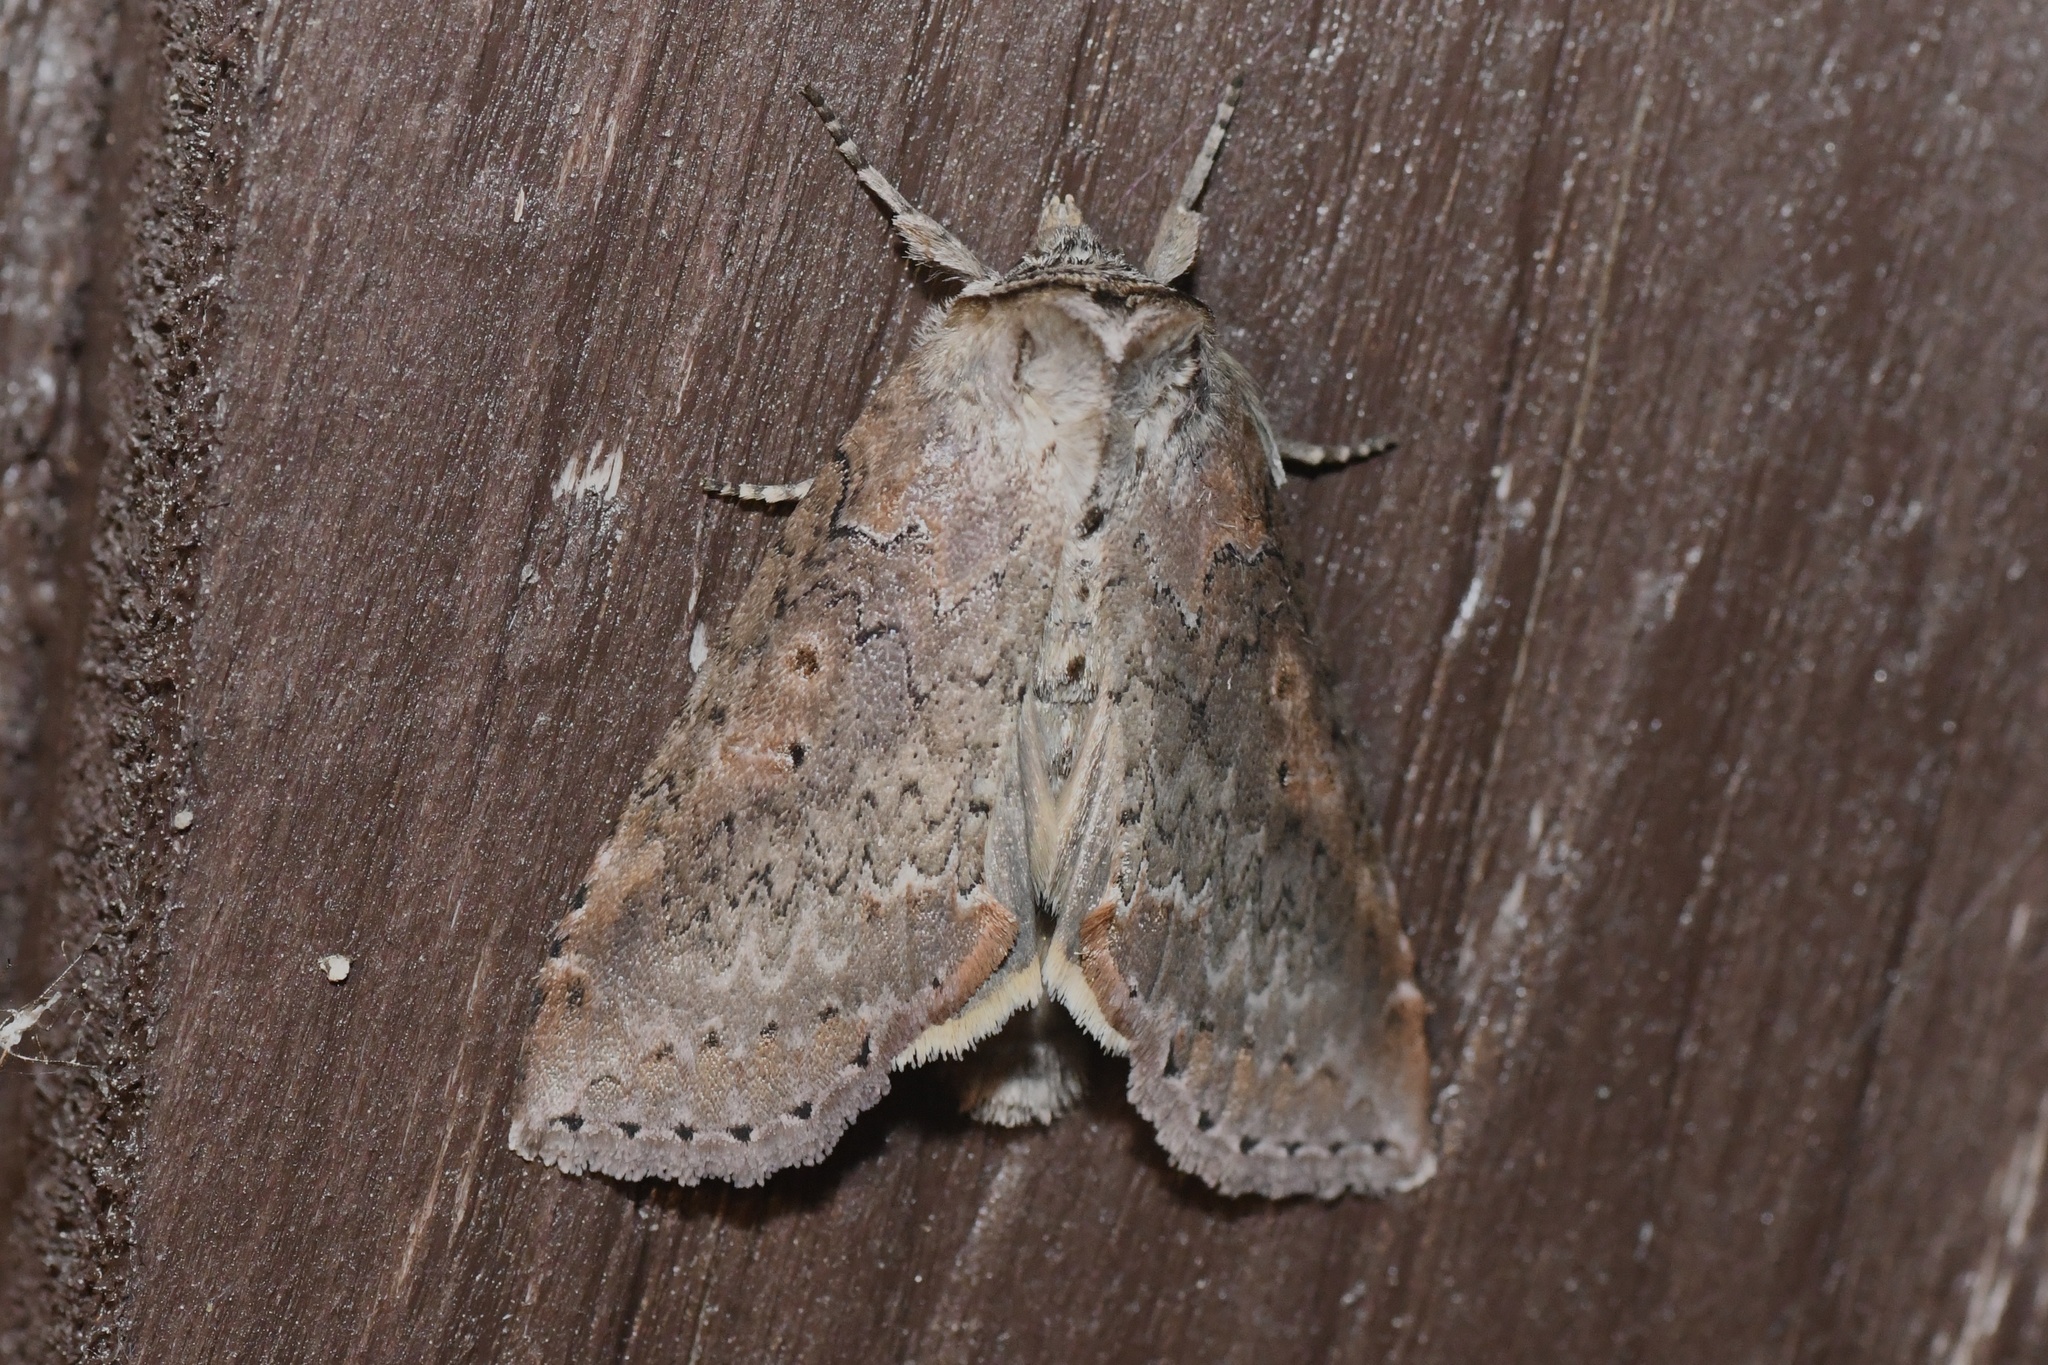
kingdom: Animalia
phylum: Arthropoda
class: Insecta
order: Lepidoptera
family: Drepanidae
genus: Pseudothyatira
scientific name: Pseudothyatira cymatophoroides
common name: Tufted thyatirid moth
